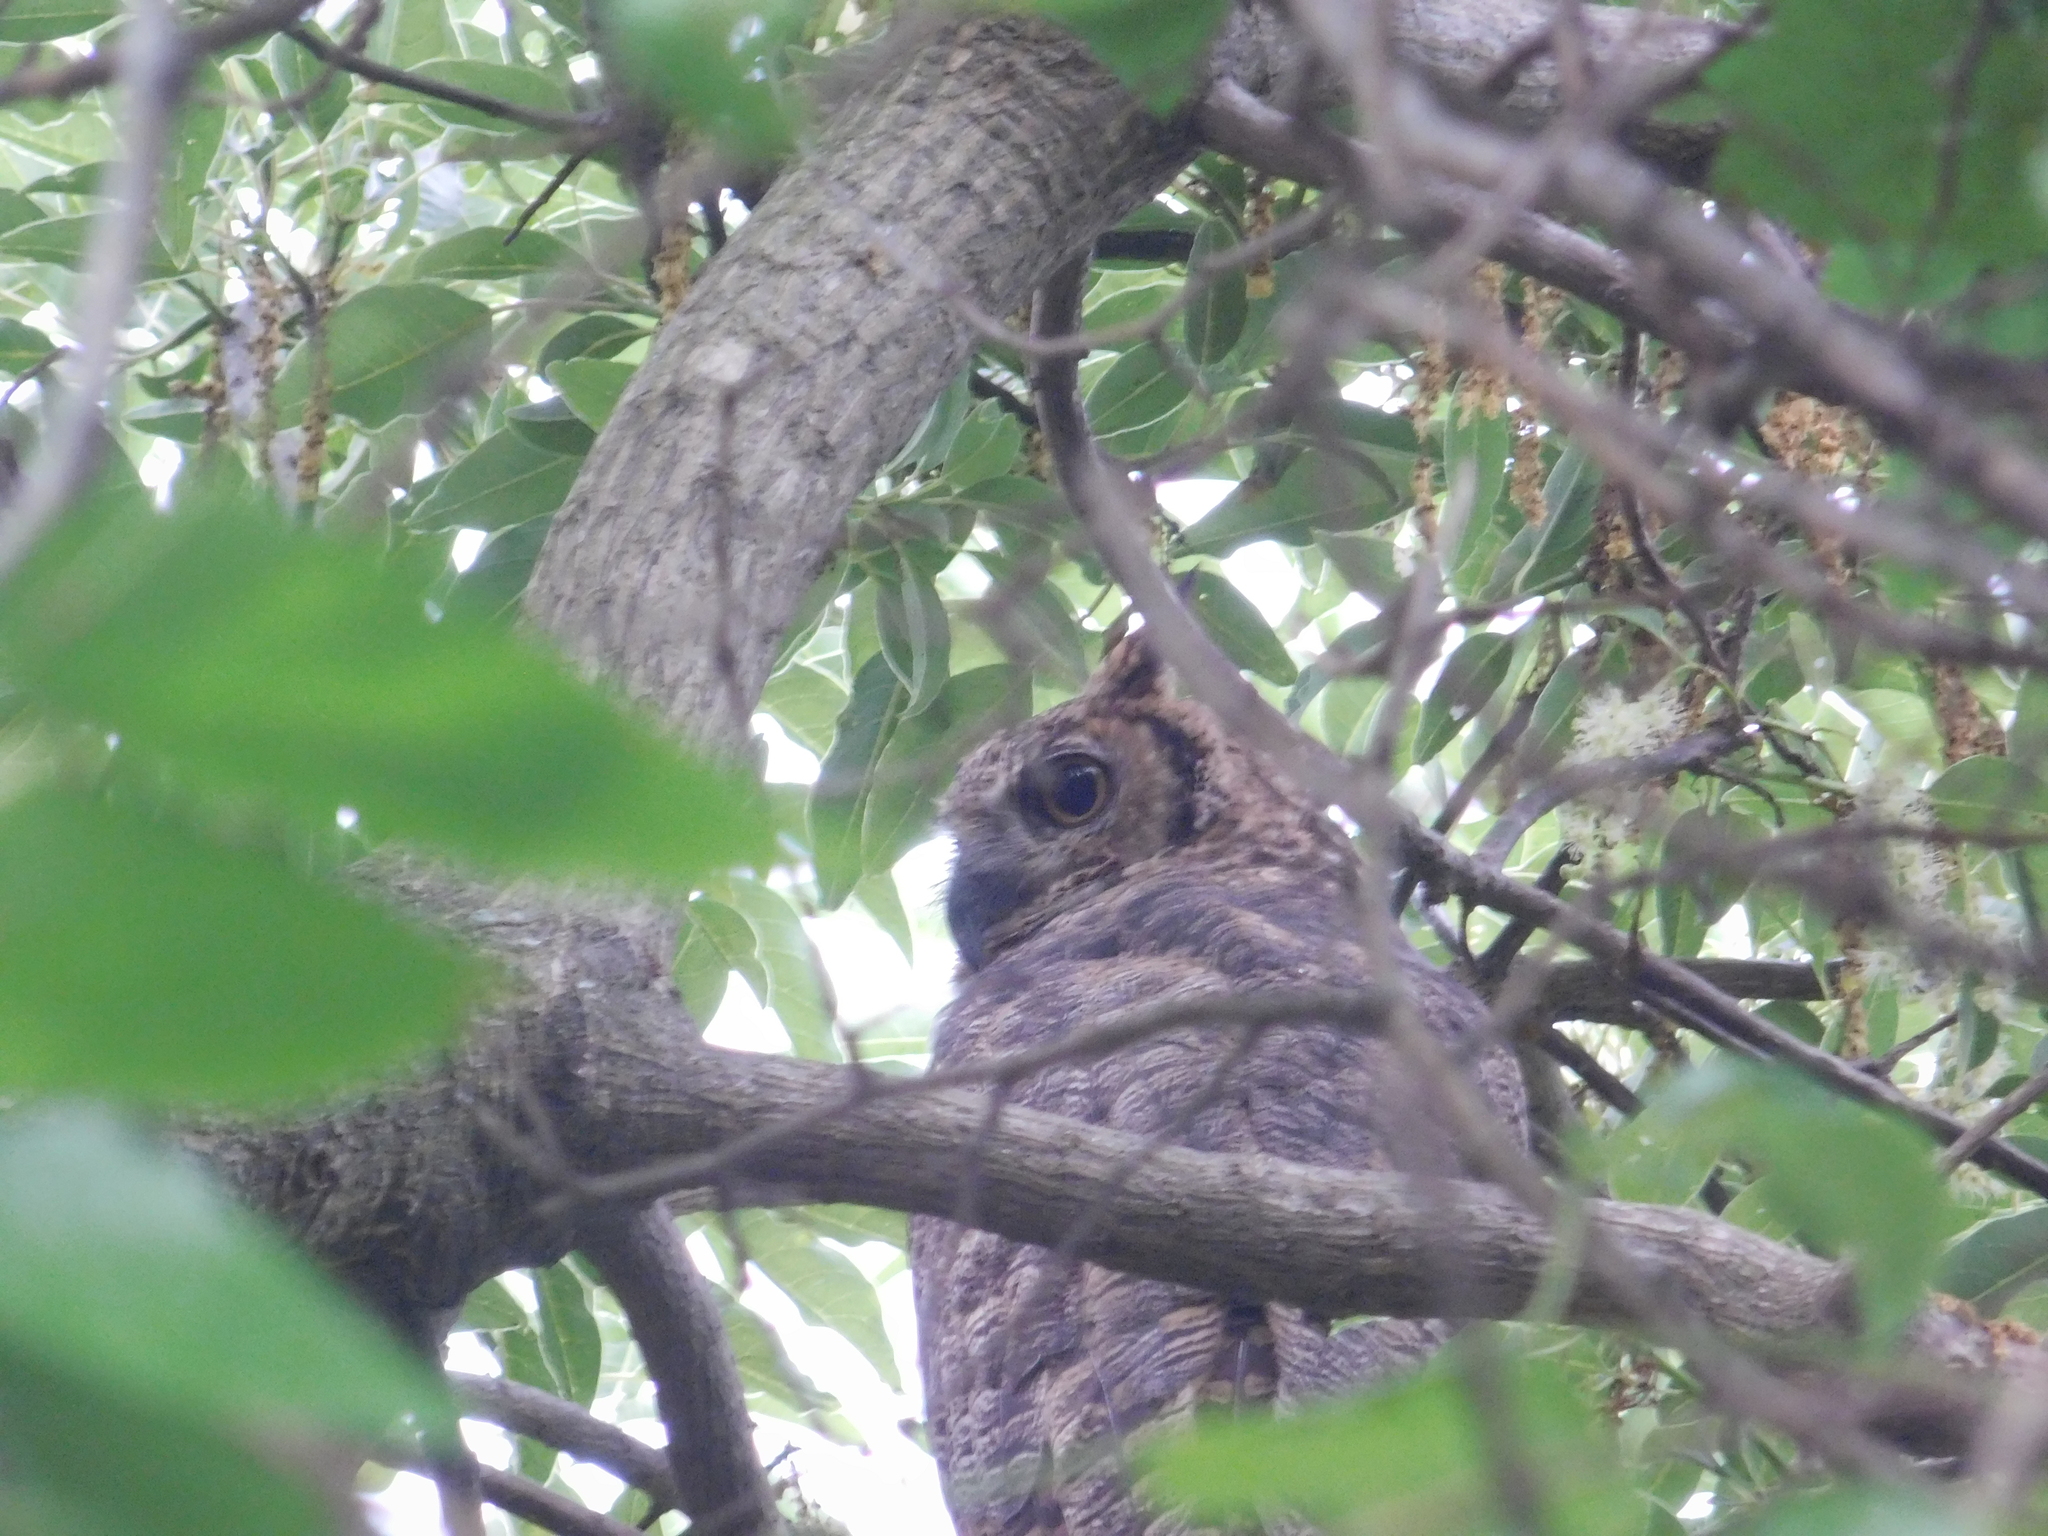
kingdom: Animalia
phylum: Chordata
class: Aves
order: Strigiformes
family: Strigidae
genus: Bubo
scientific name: Bubo virginianus
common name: Great horned owl
